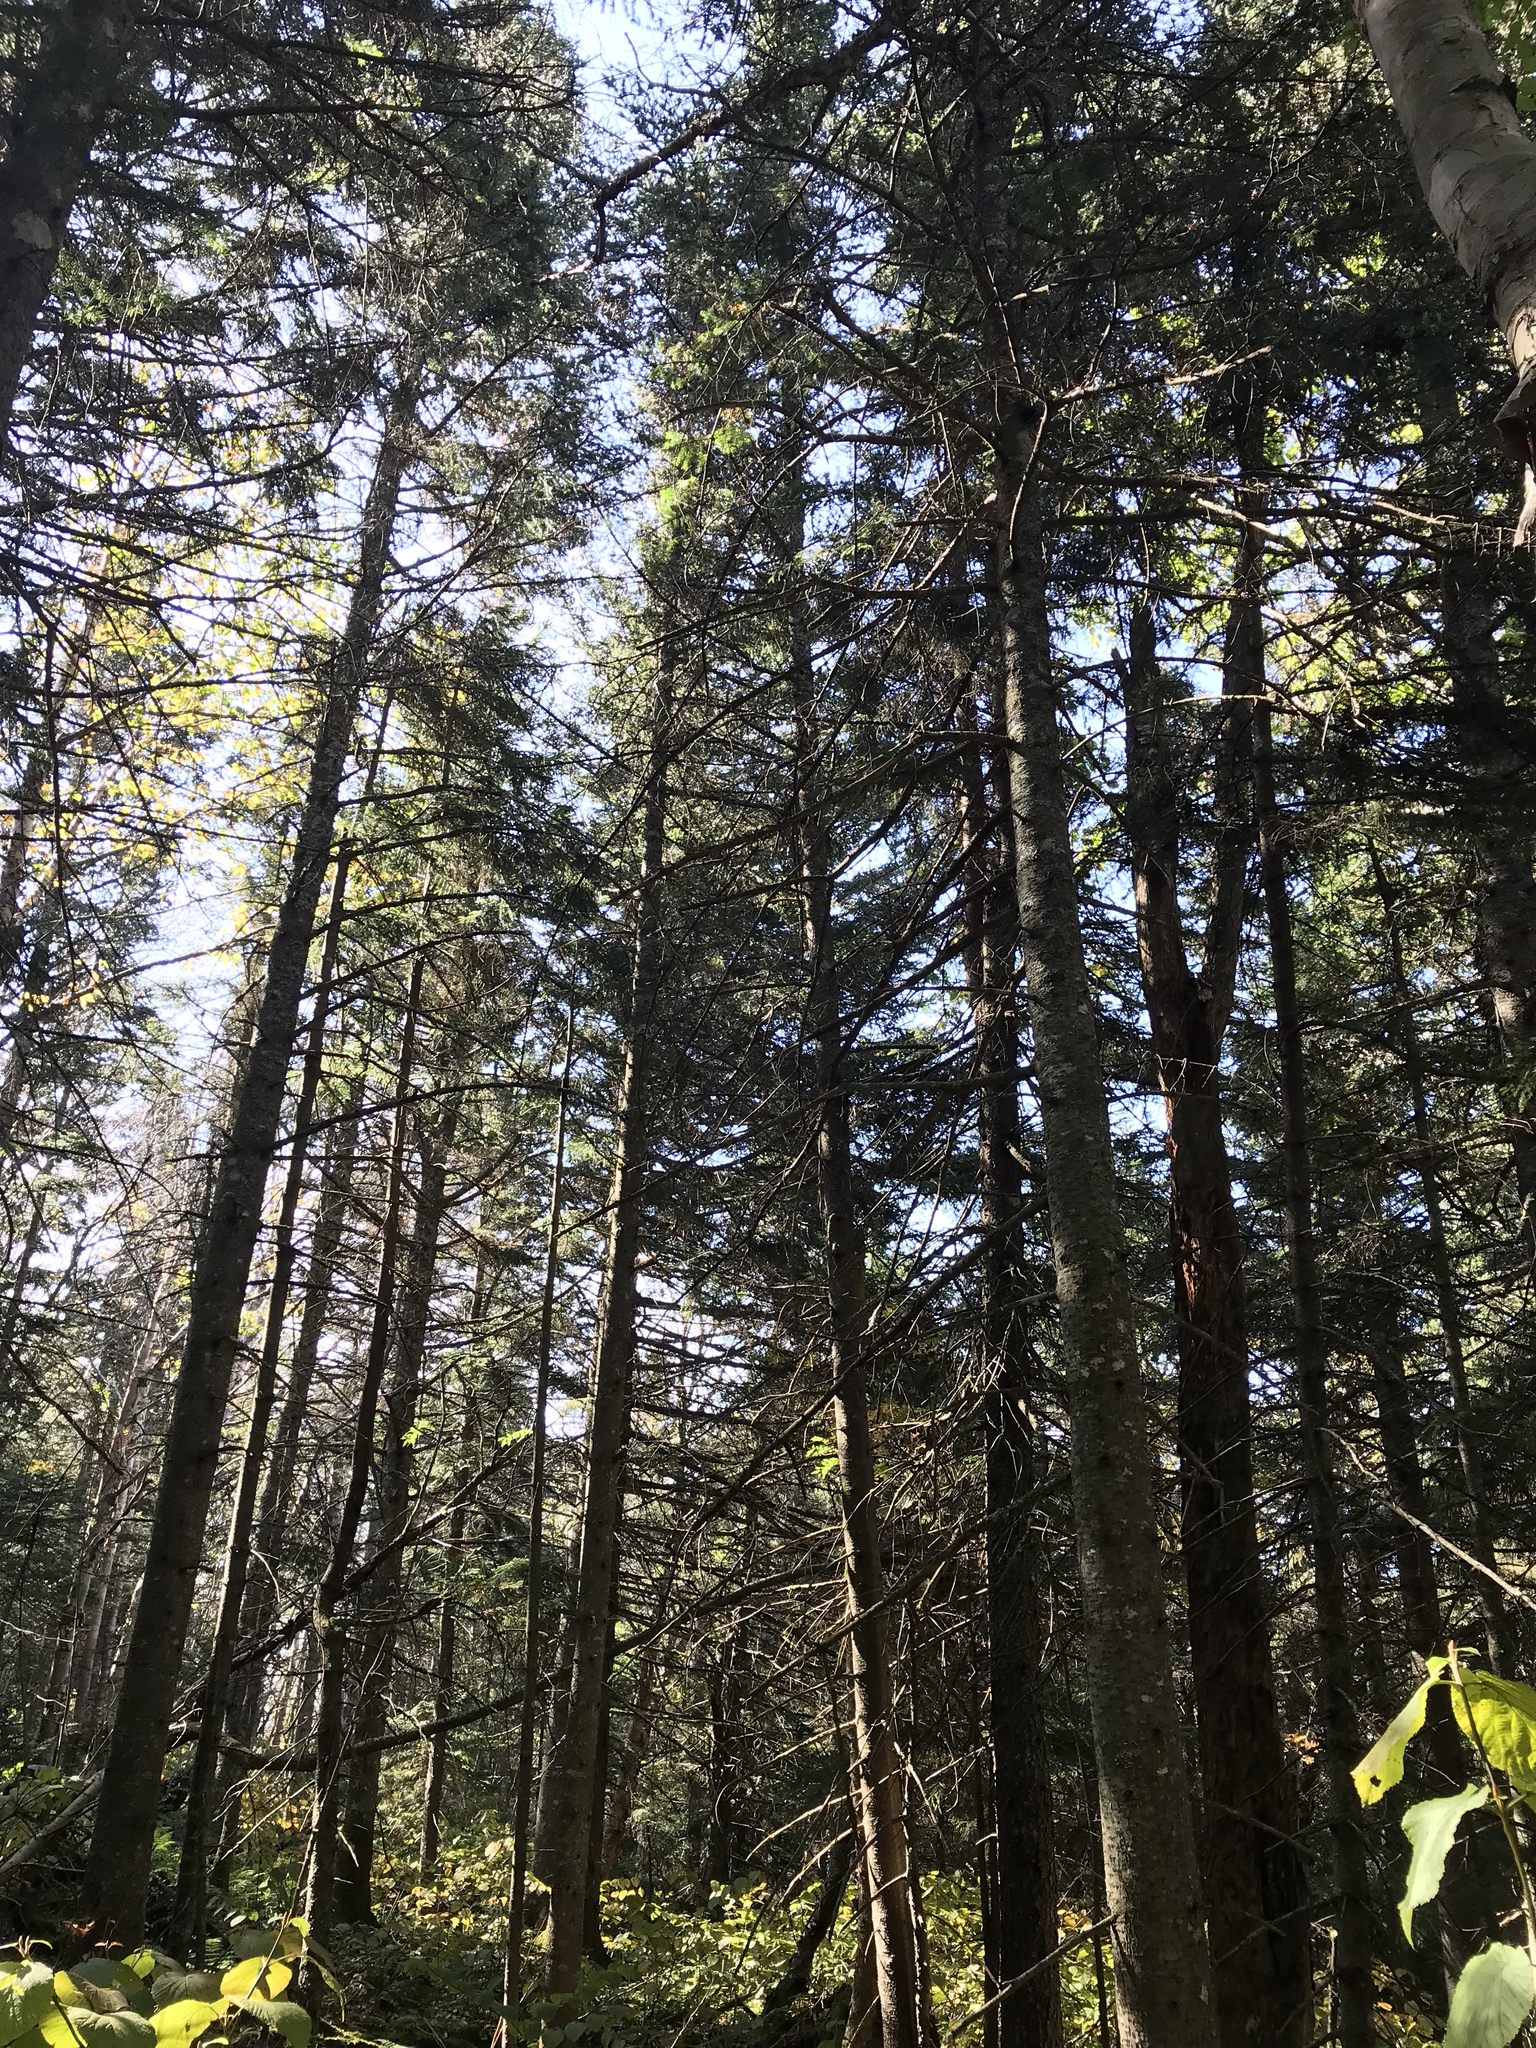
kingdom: Plantae
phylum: Tracheophyta
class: Pinopsida
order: Pinales
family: Pinaceae
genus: Abies
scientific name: Abies balsamea
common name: Balsam fir
